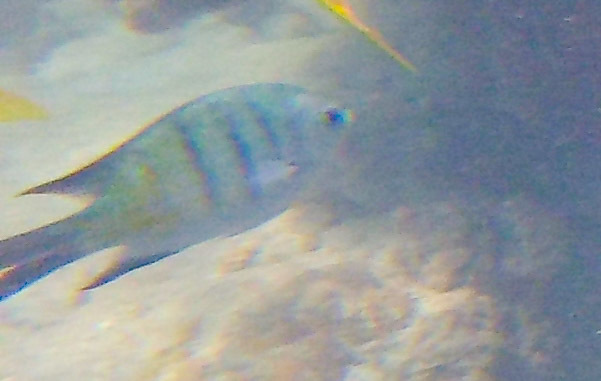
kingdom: Animalia
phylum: Chordata
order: Perciformes
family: Pomacentridae
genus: Abudefduf
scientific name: Abudefduf whitleyi
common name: Whitley's seargent
